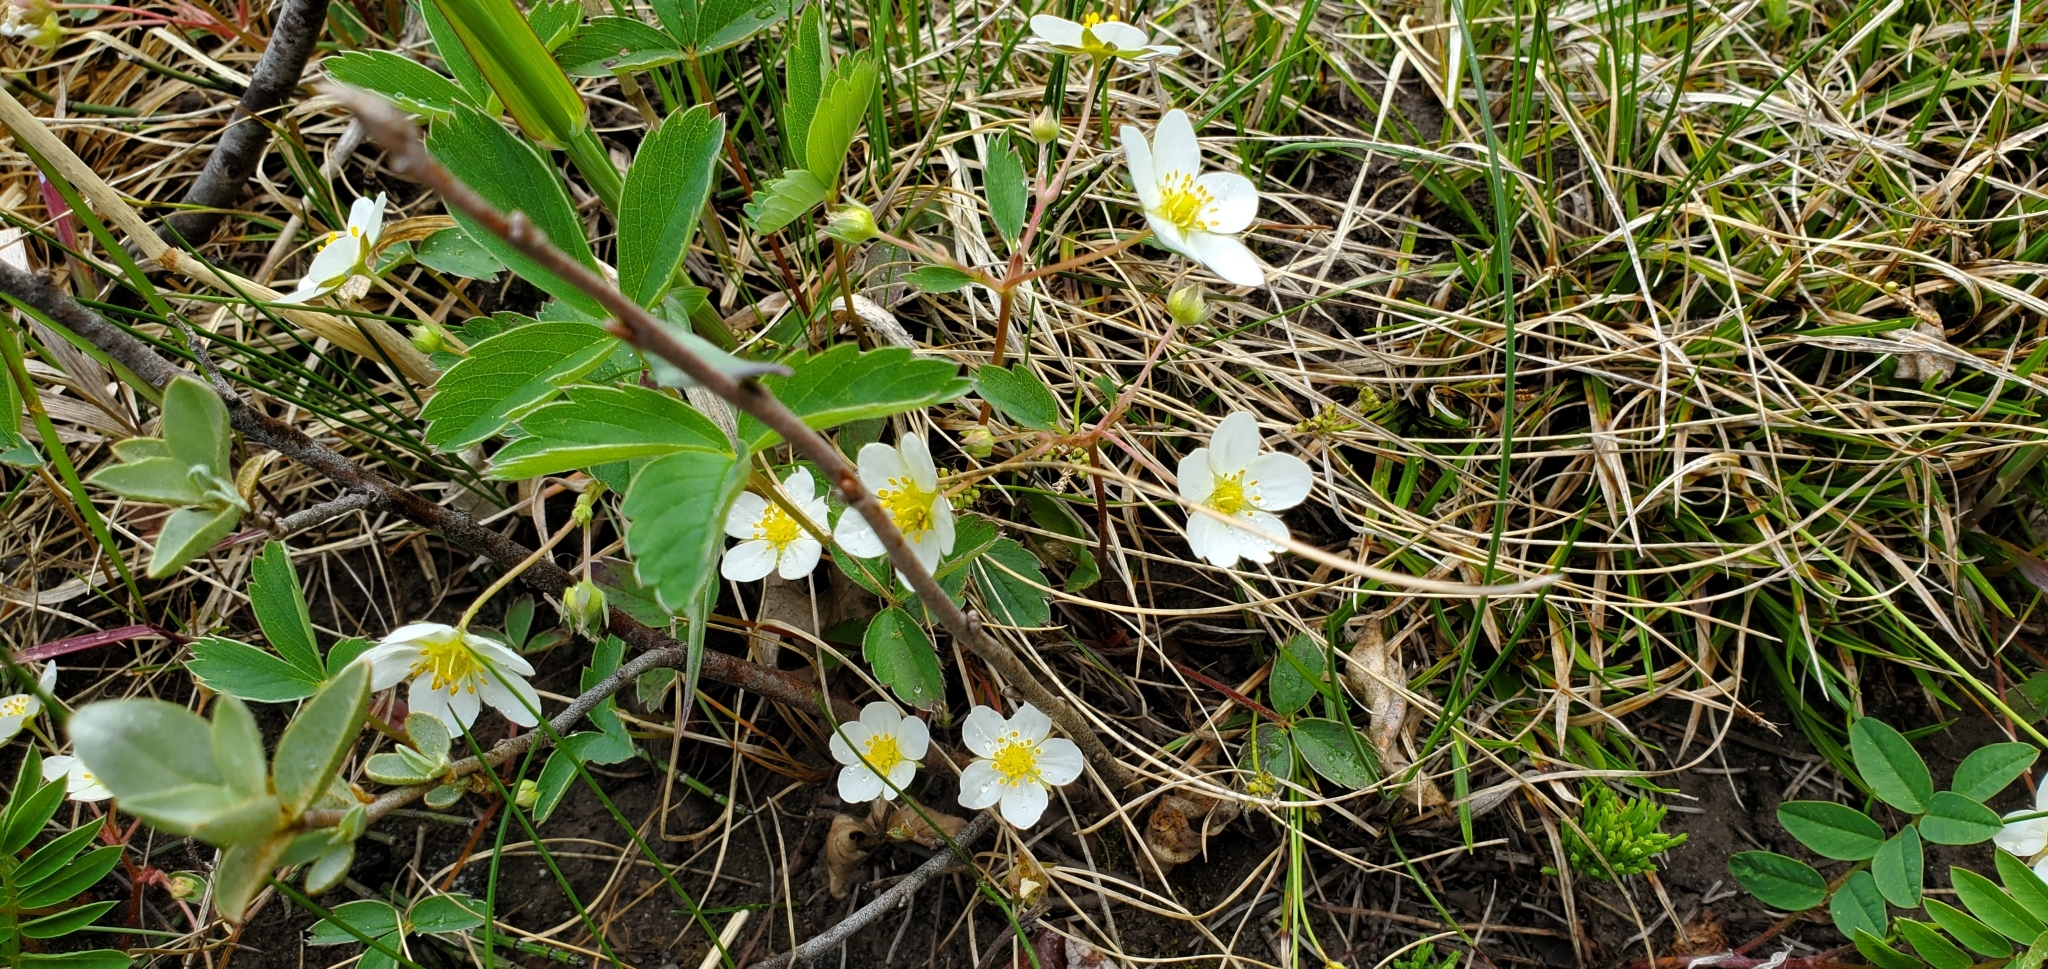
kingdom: Plantae
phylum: Tracheophyta
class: Magnoliopsida
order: Rosales
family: Rosaceae
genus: Fragaria
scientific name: Fragaria virginiana
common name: Thickleaved wild strawberry
